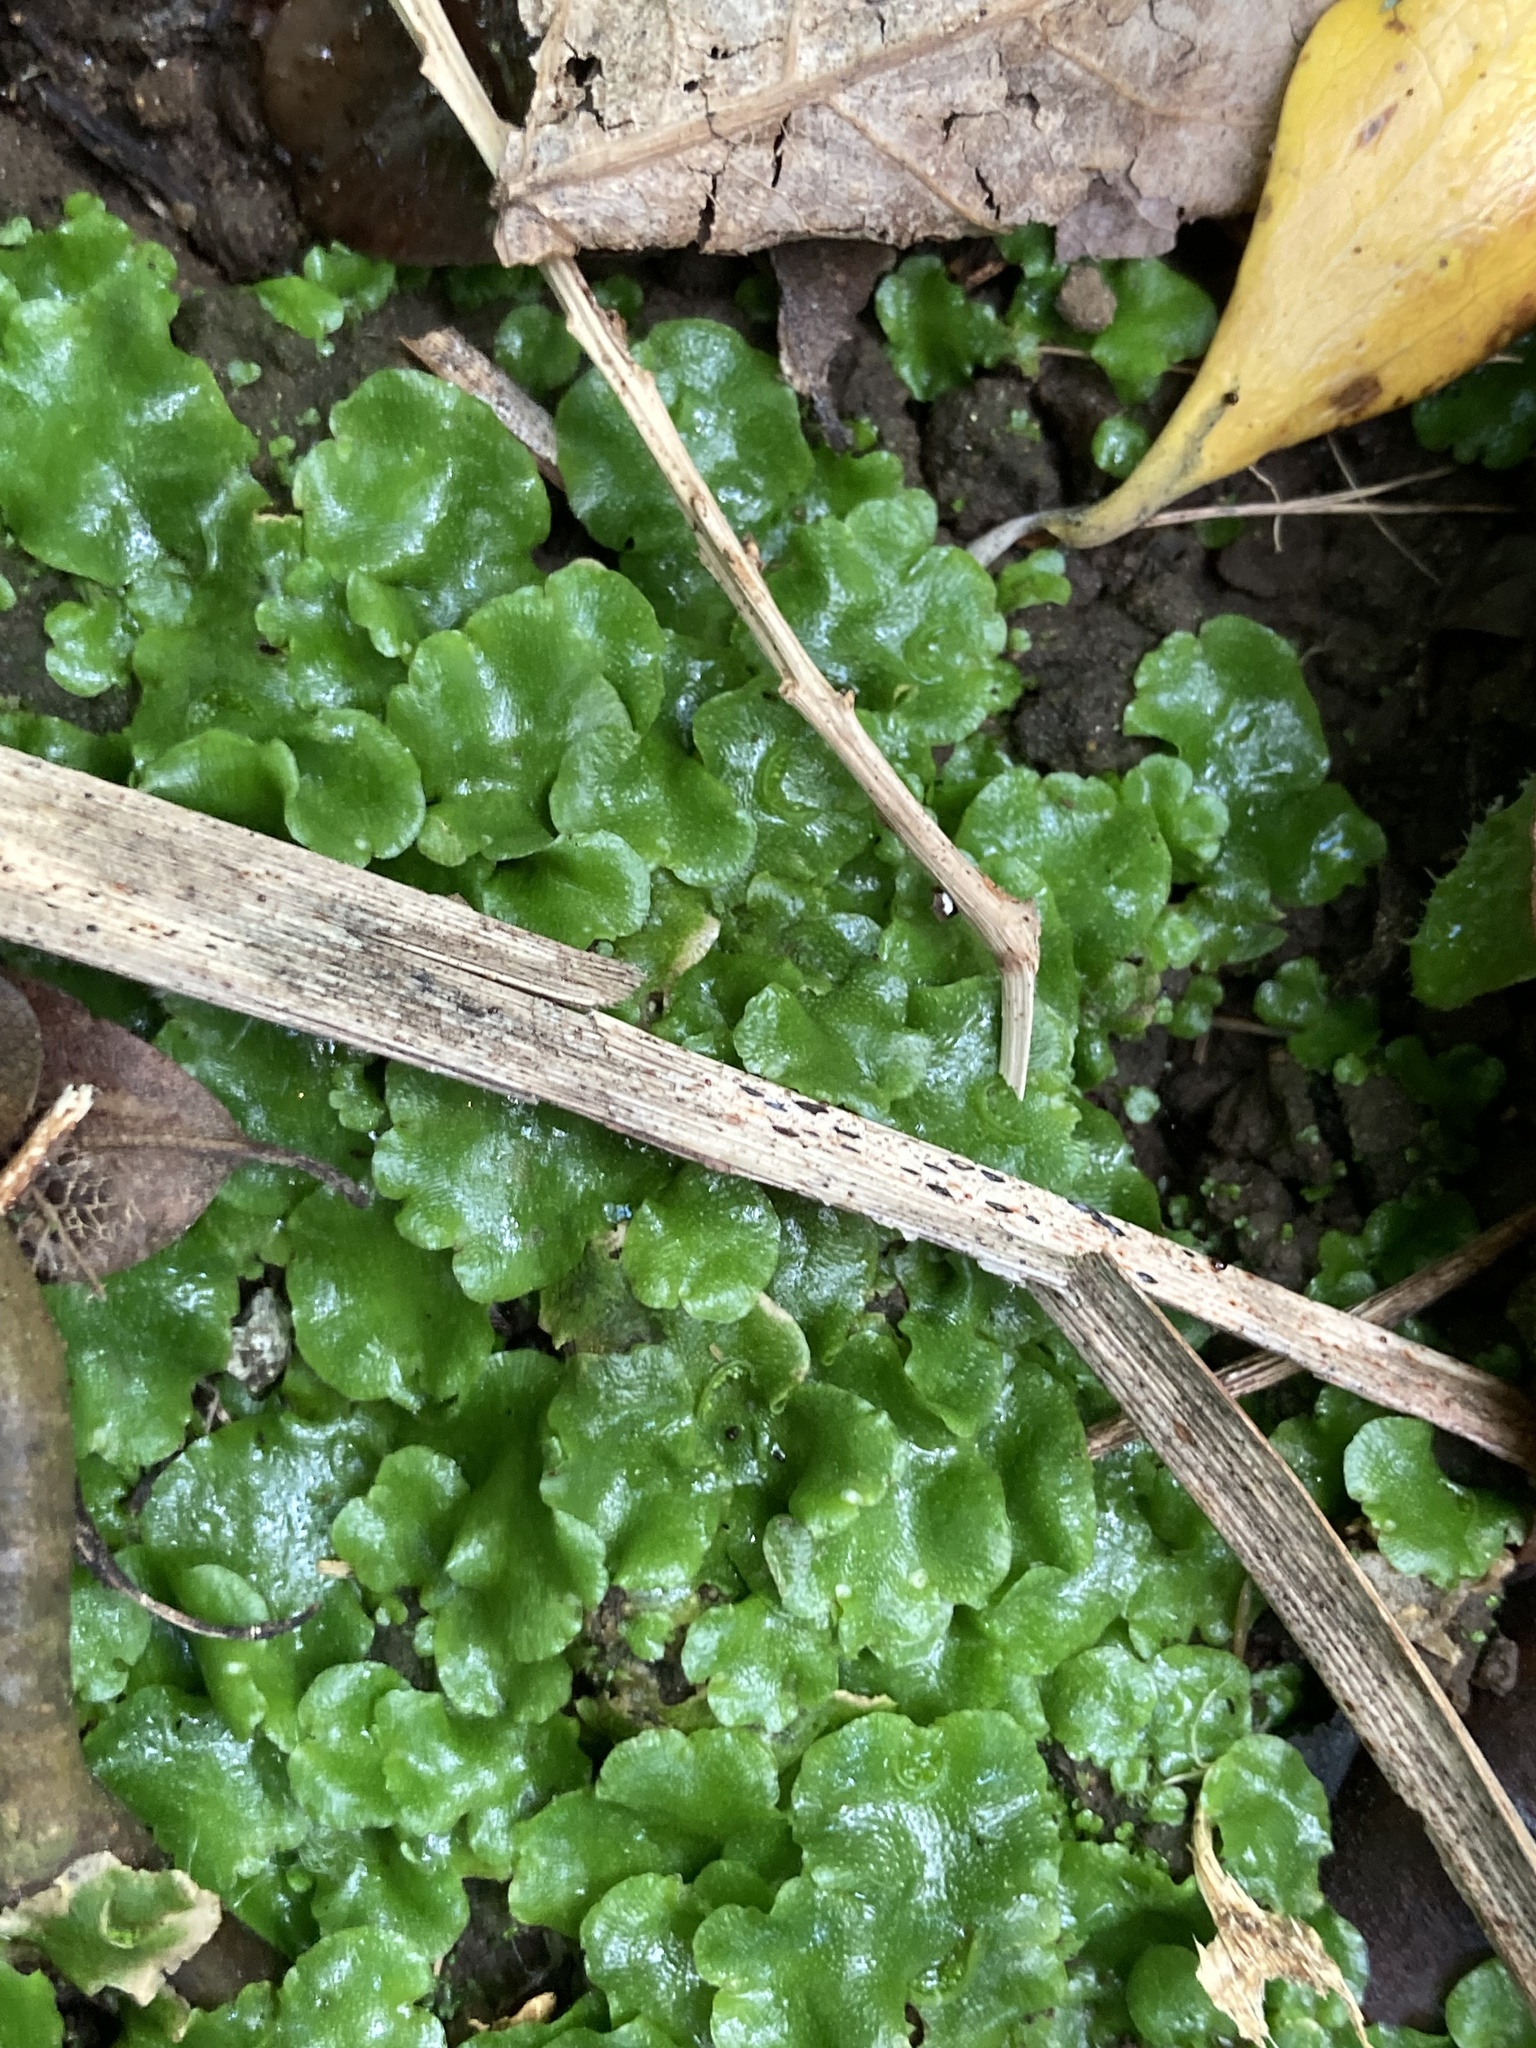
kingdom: Plantae
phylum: Marchantiophyta
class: Marchantiopsida
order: Lunulariales
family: Lunulariaceae
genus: Lunularia
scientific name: Lunularia cruciata
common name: Crescent-cup liverwort
